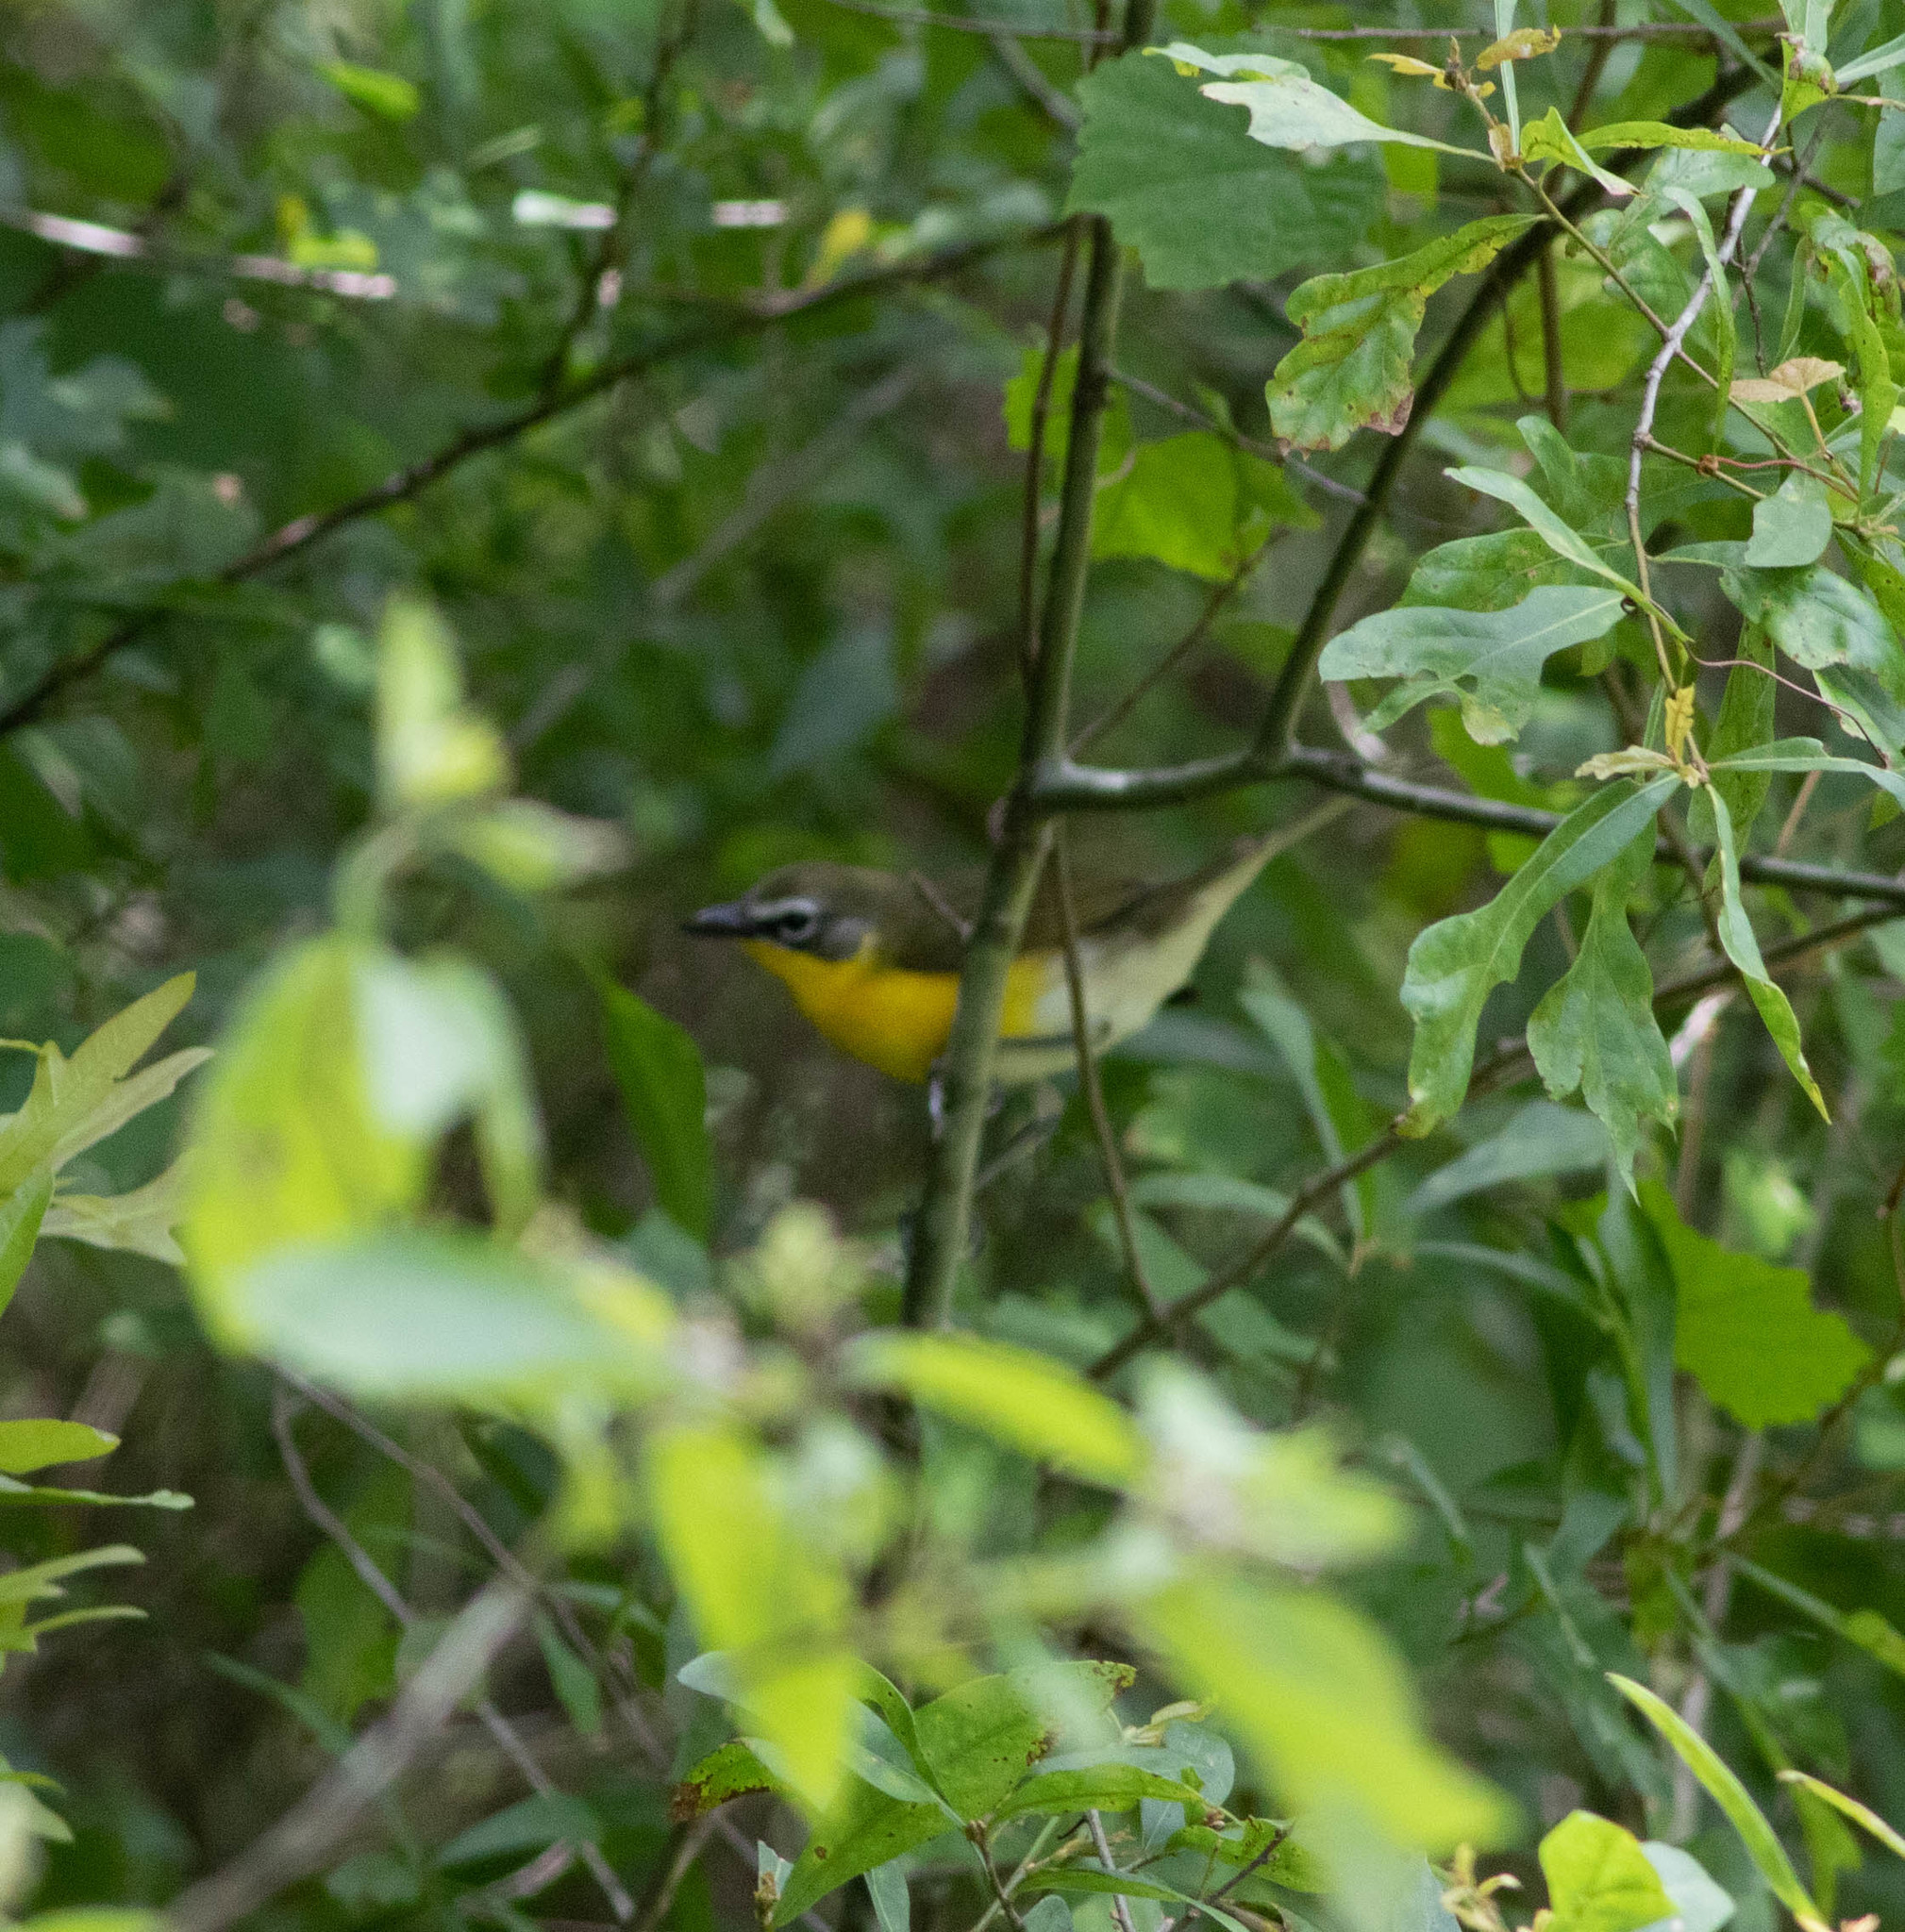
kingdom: Animalia
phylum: Chordata
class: Aves
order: Passeriformes
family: Parulidae
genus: Icteria
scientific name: Icteria virens
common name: Yellow-breasted chat
